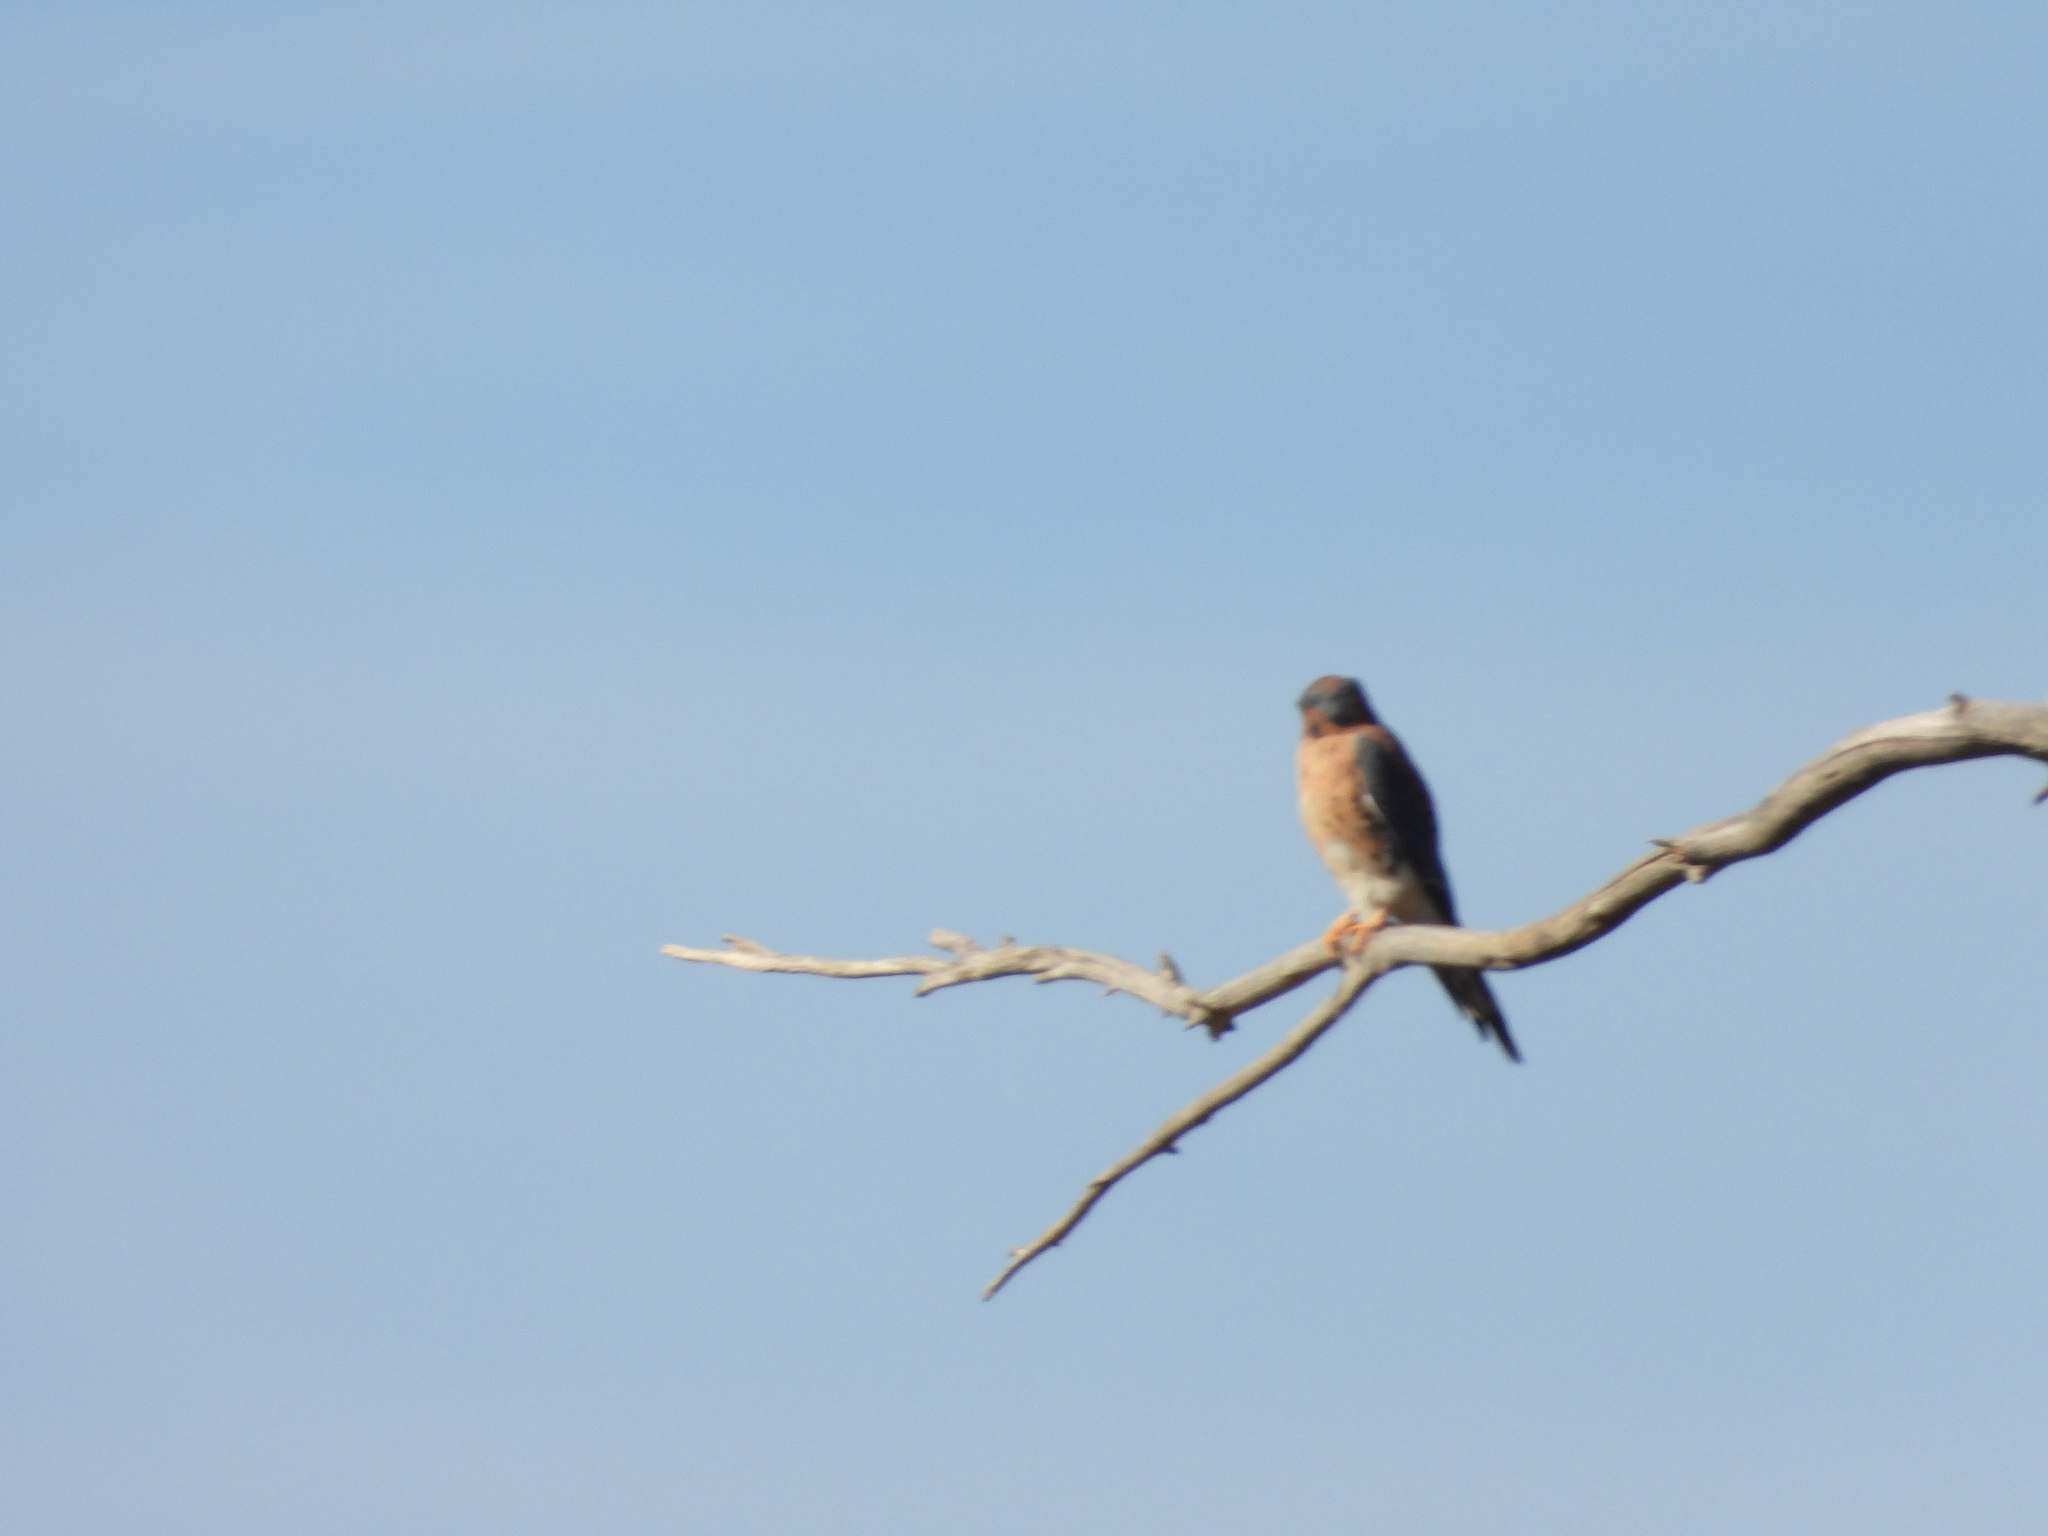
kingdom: Animalia
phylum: Chordata
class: Aves
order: Falconiformes
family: Falconidae
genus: Falco
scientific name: Falco sparverius
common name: American kestrel
